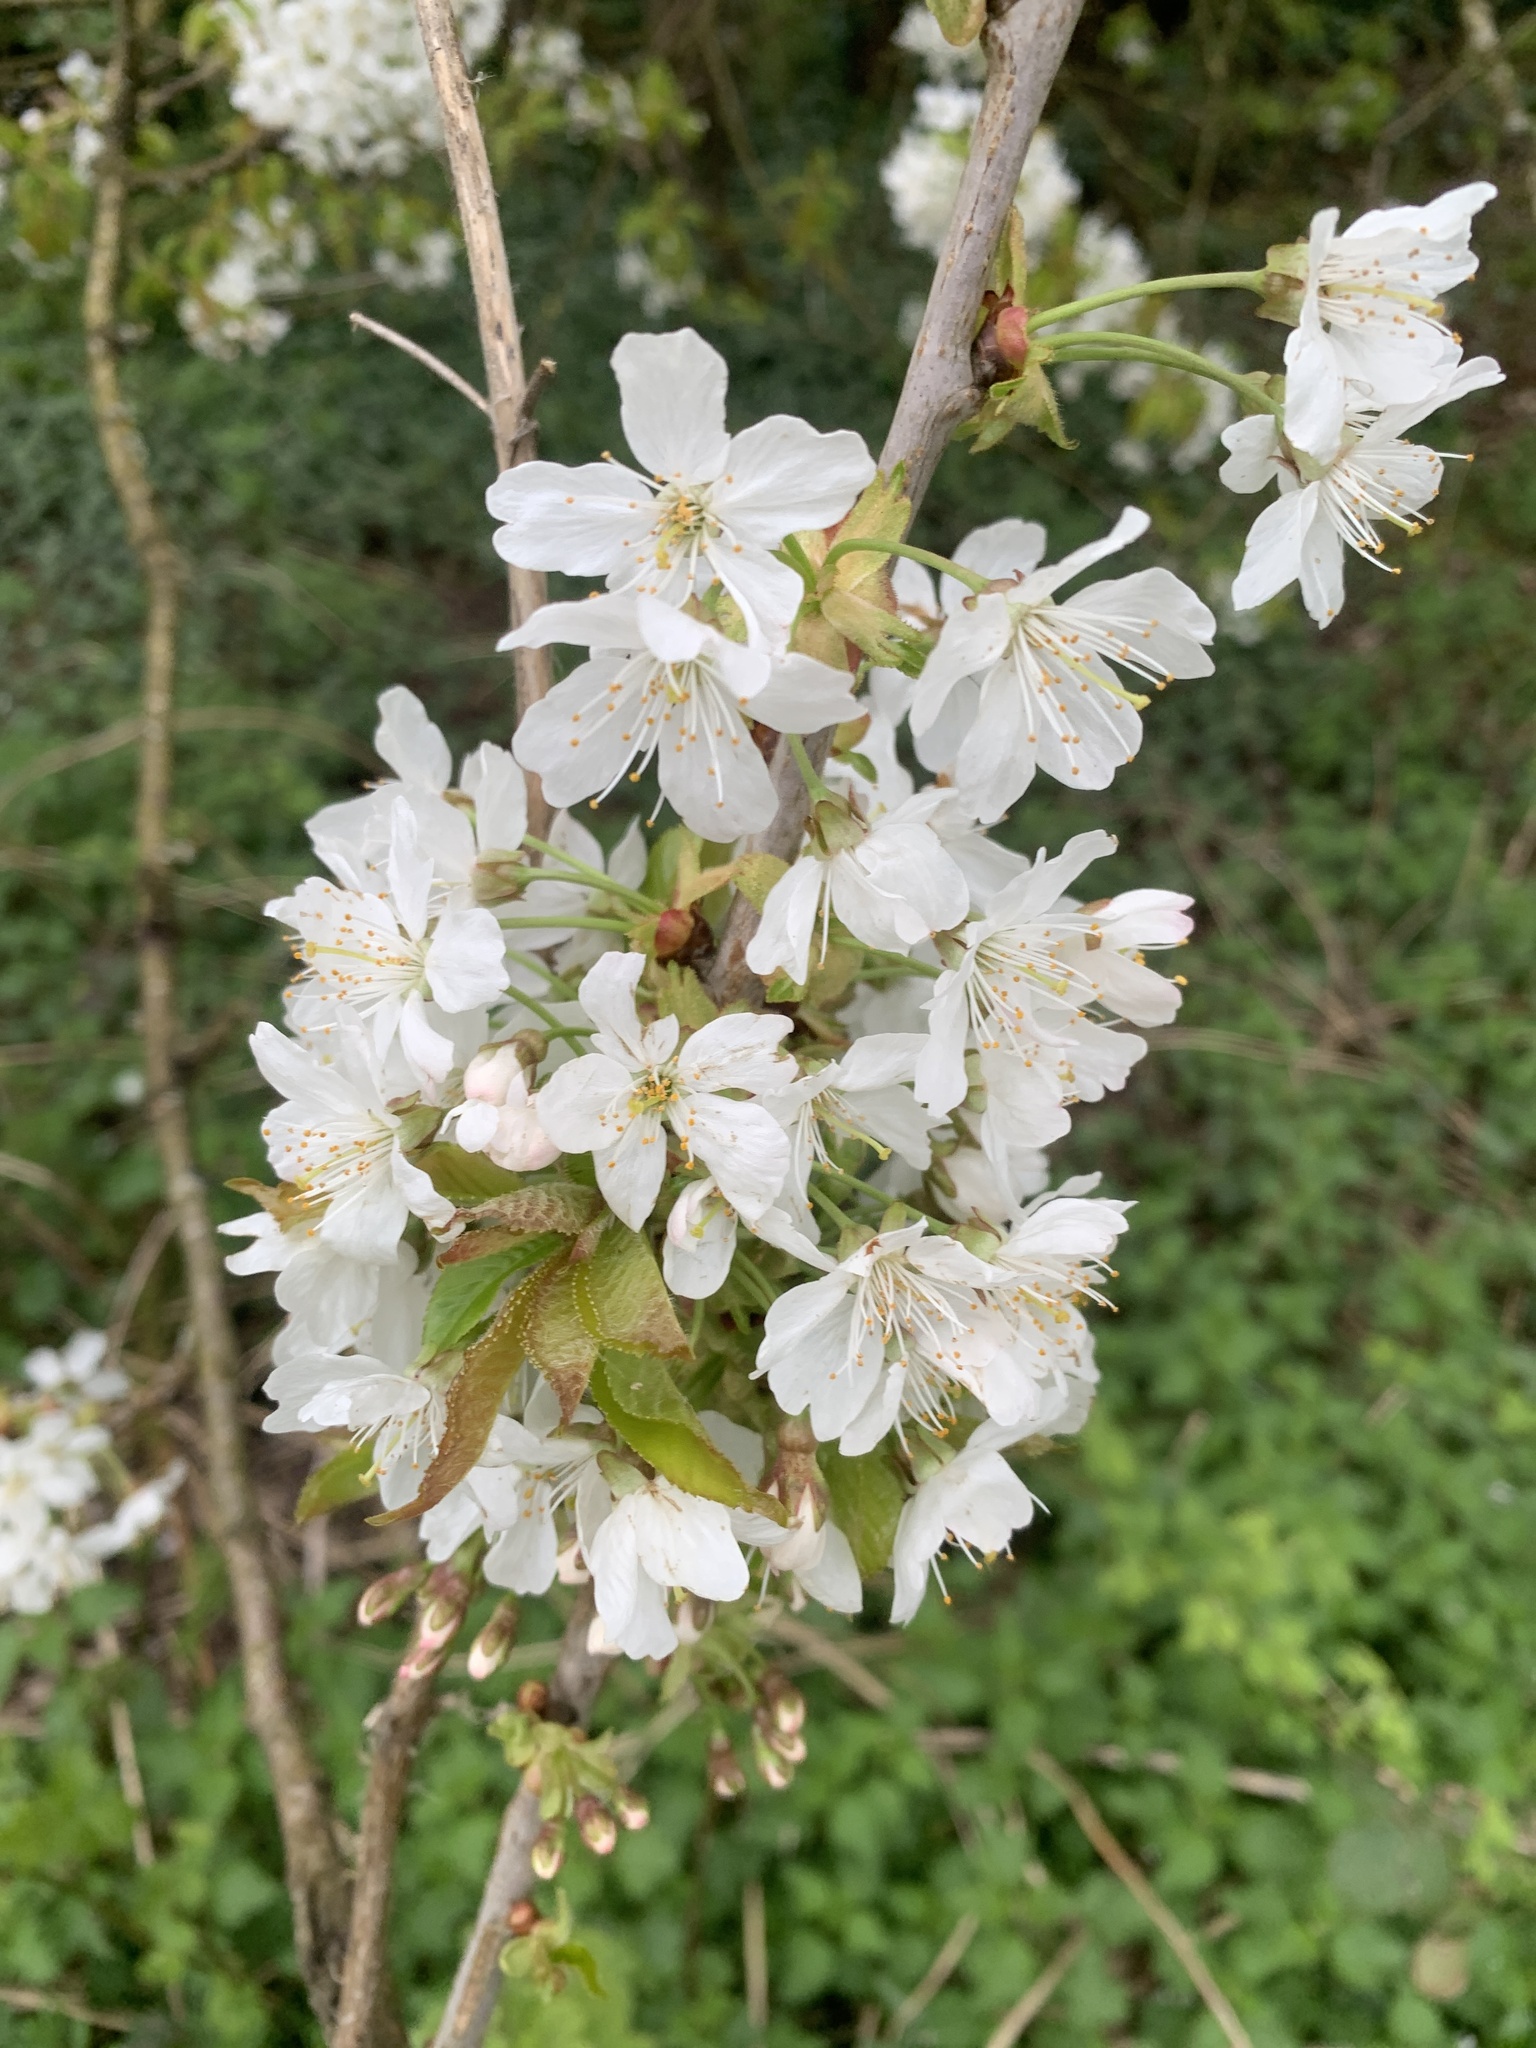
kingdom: Plantae
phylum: Tracheophyta
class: Magnoliopsida
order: Rosales
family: Rosaceae
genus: Prunus
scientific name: Prunus avium
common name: Sweet cherry
